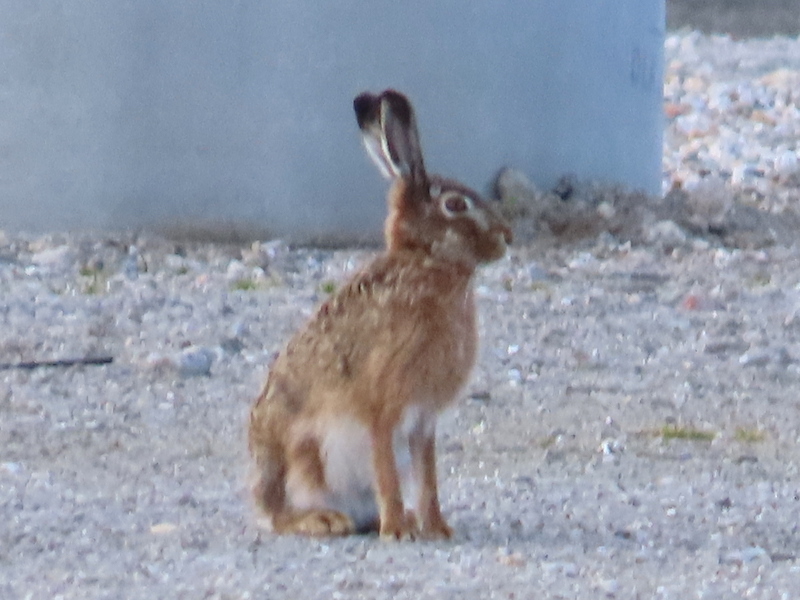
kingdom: Animalia
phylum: Chordata
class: Mammalia
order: Lagomorpha
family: Leporidae
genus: Lepus
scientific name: Lepus europaeus
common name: European hare
